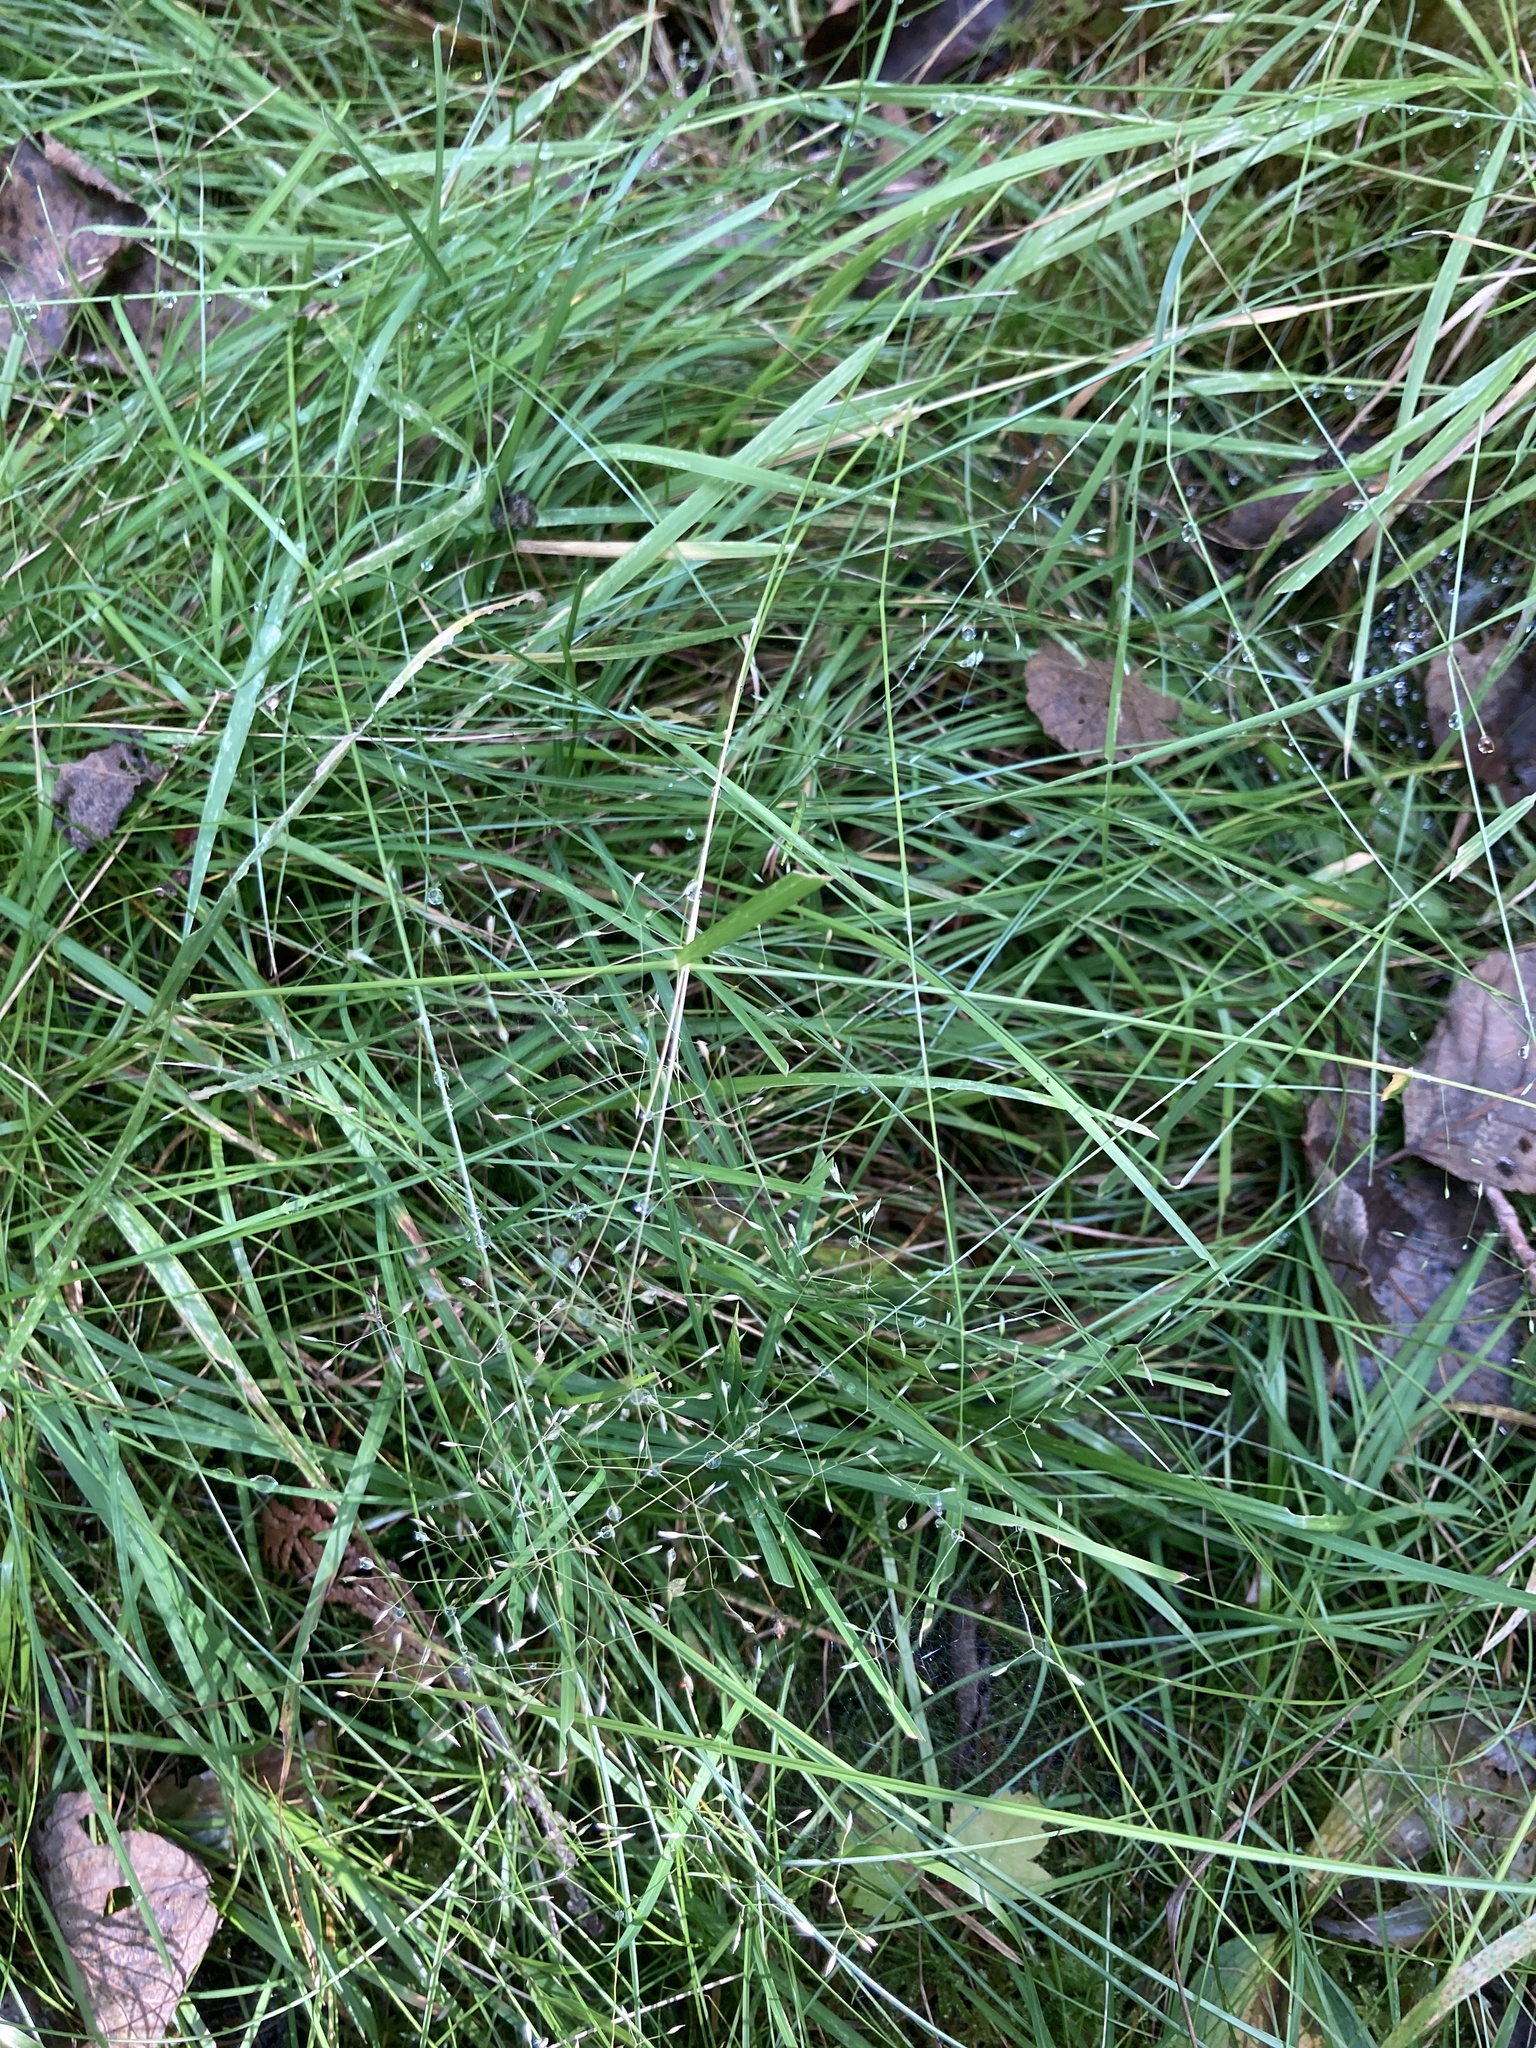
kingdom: Plantae
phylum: Tracheophyta
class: Liliopsida
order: Poales
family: Poaceae
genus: Agrostis
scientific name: Agrostis perennans
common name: Autumn bent
